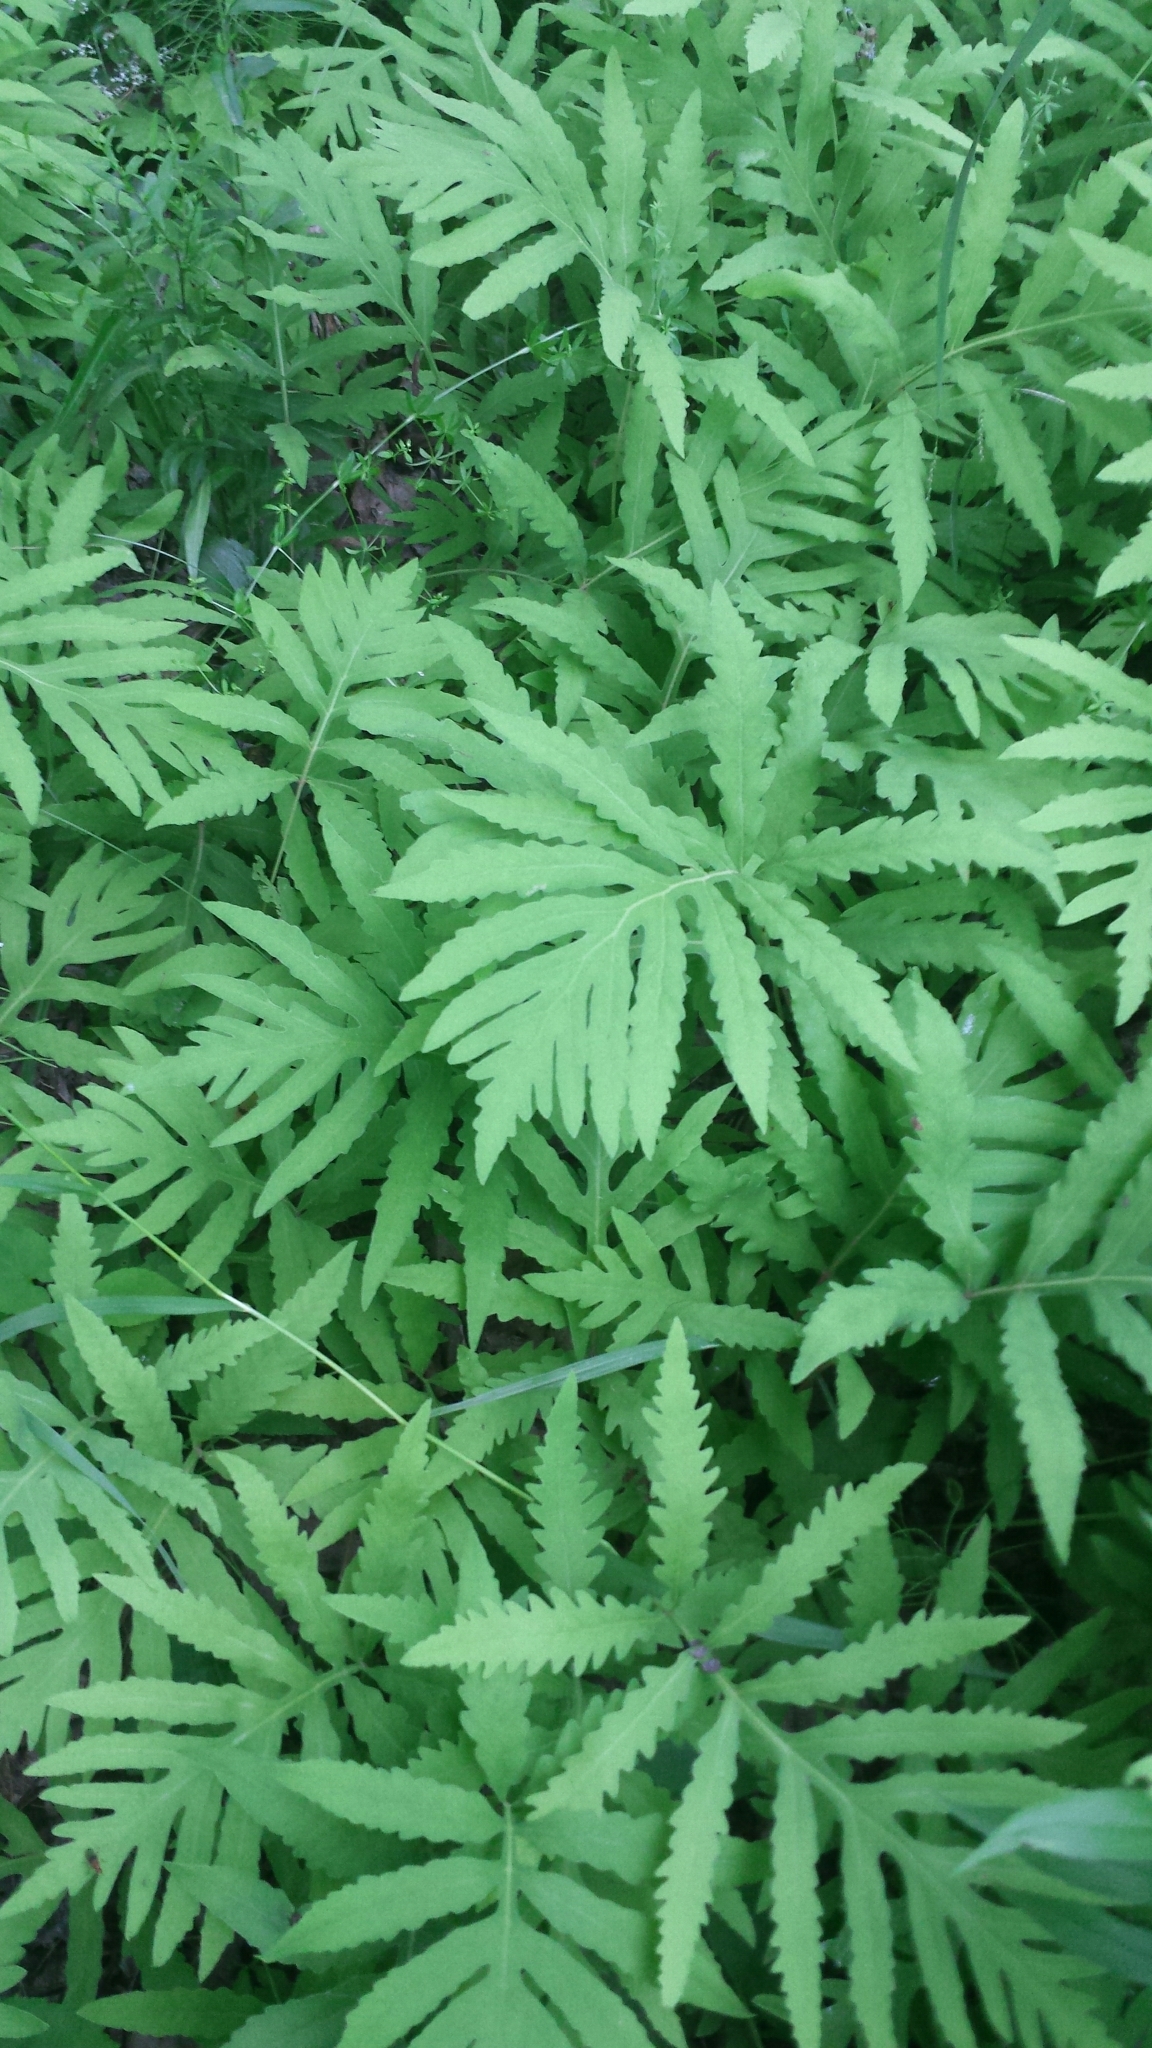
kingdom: Plantae
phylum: Tracheophyta
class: Polypodiopsida
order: Polypodiales
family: Onocleaceae
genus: Onoclea
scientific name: Onoclea sensibilis
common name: Sensitive fern
